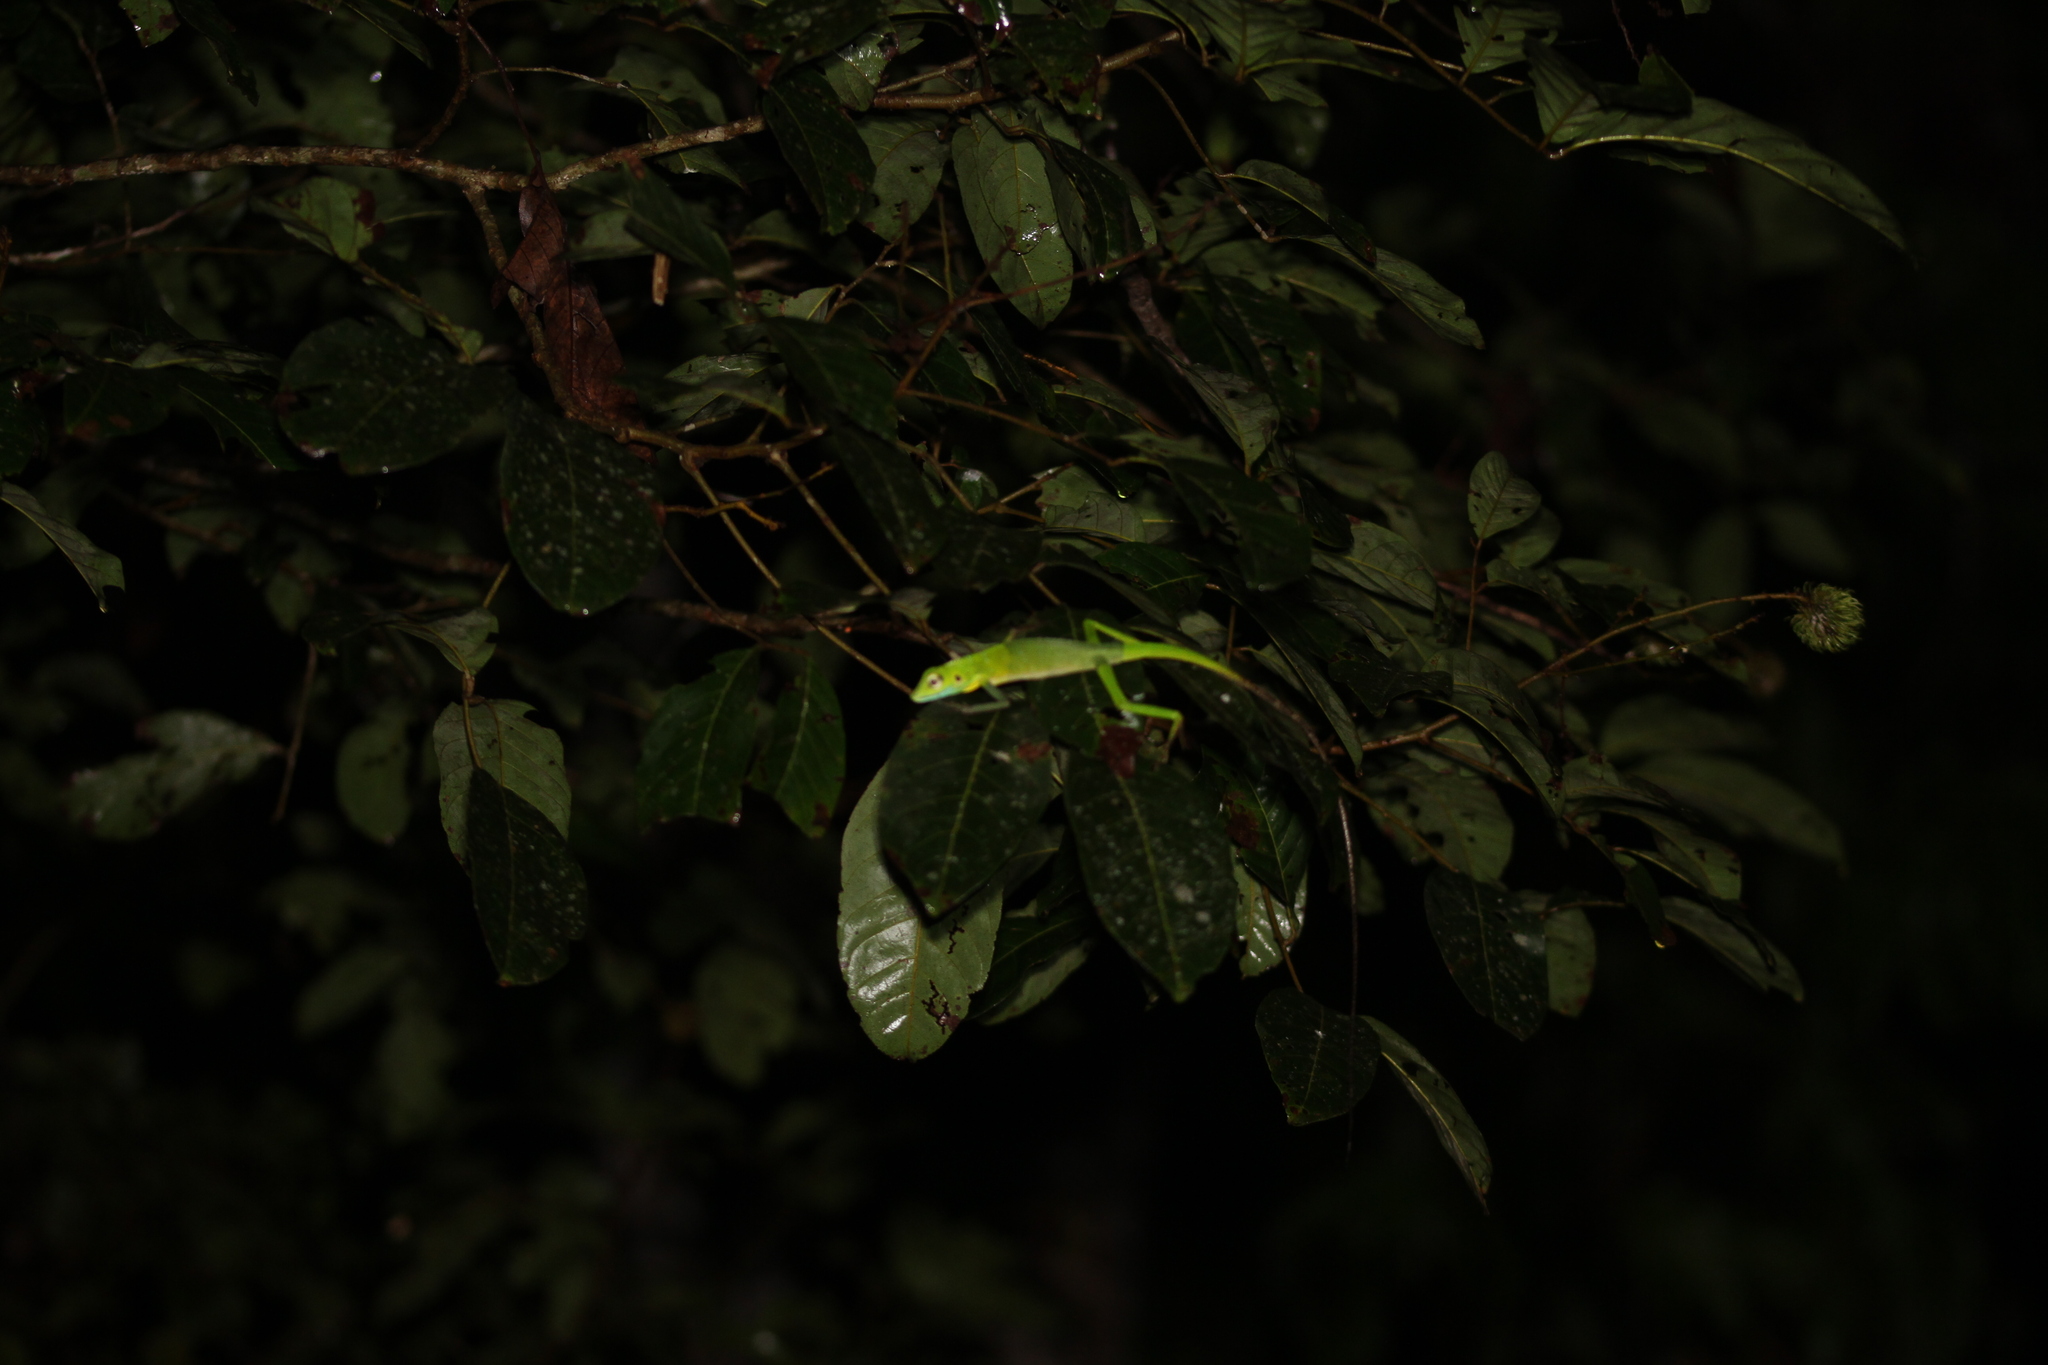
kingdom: Animalia
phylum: Chordata
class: Squamata
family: Agamidae
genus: Bronchocela
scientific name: Bronchocela cristatella
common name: Green crested lizard
